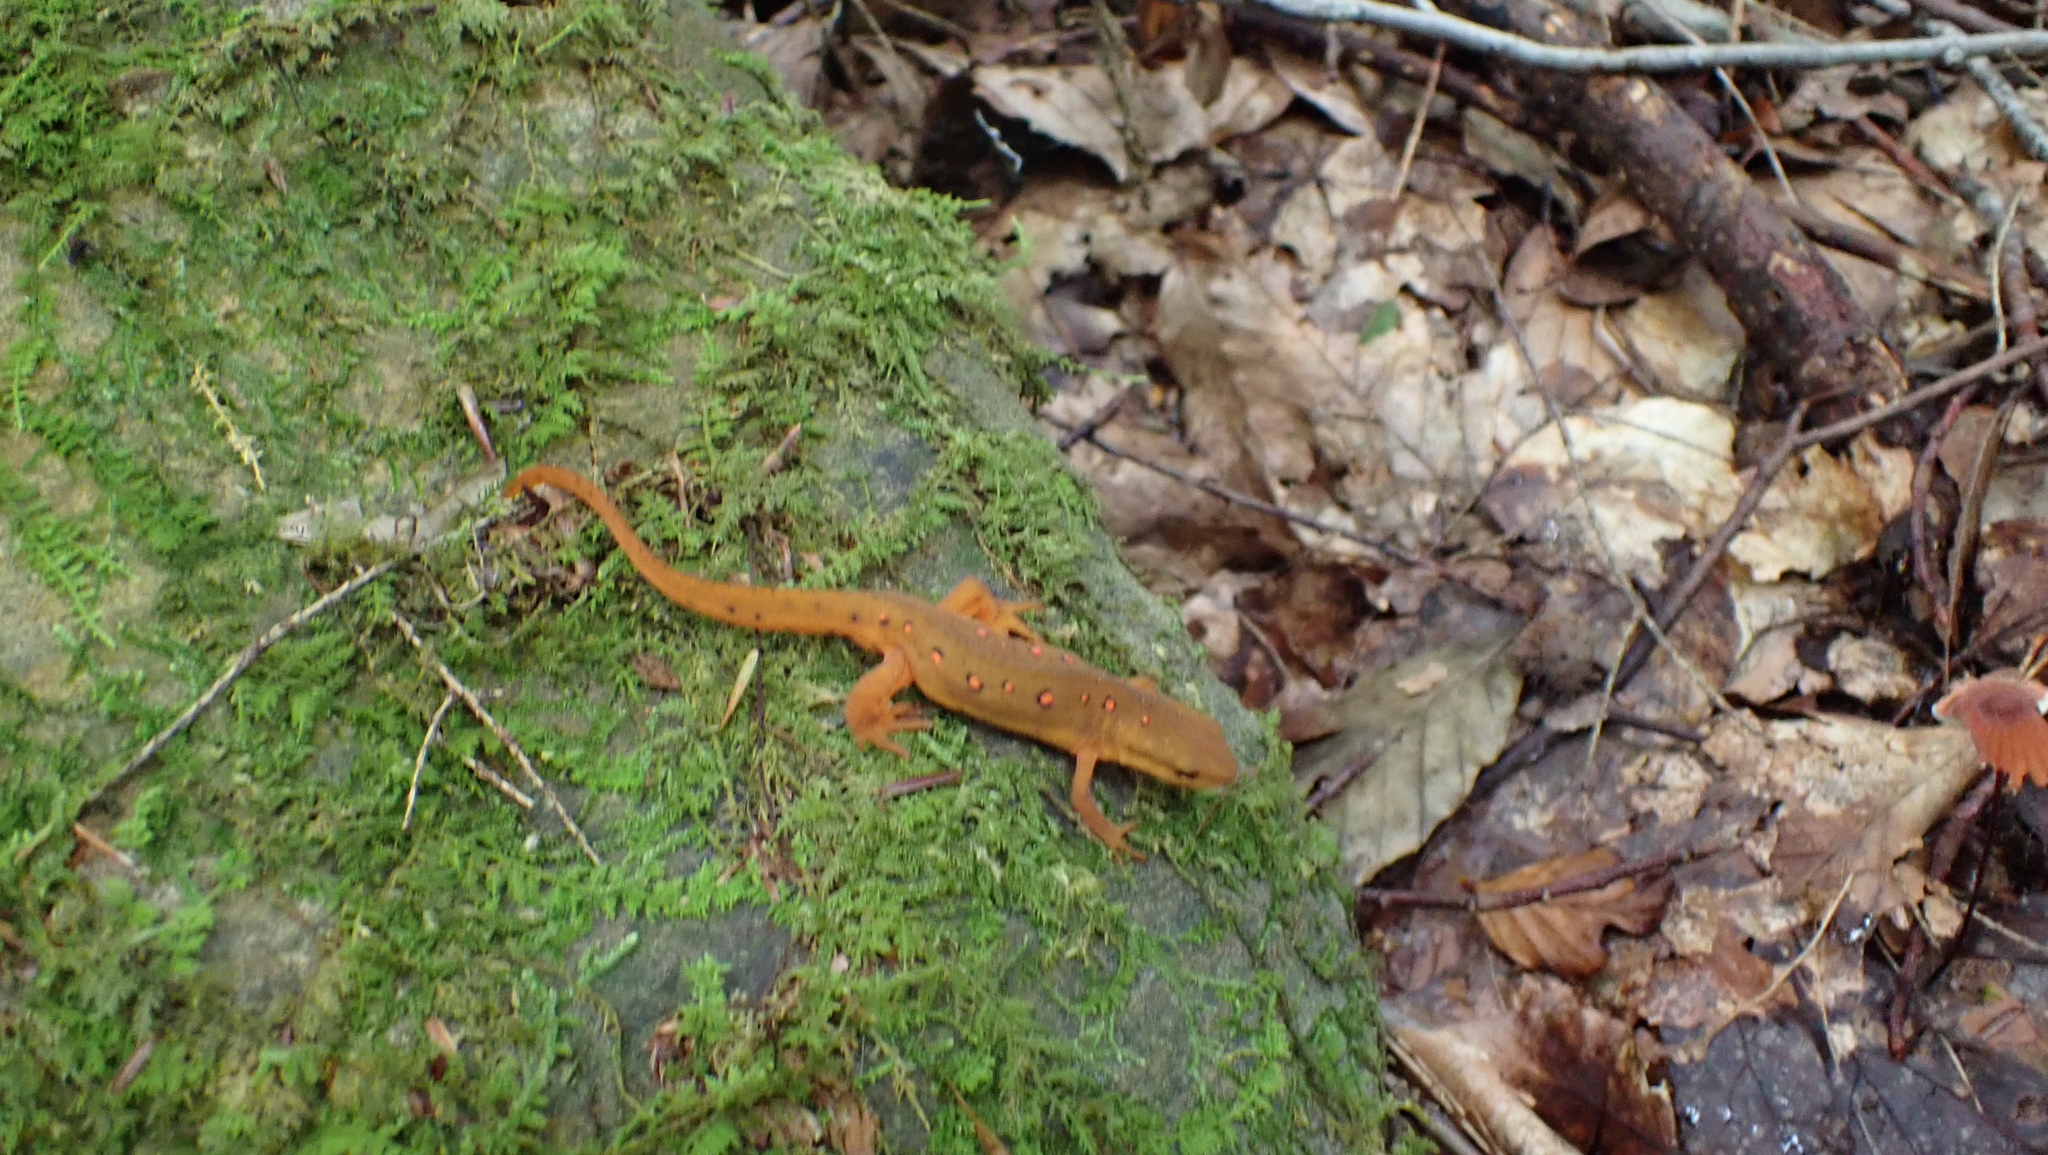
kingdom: Animalia
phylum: Chordata
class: Amphibia
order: Caudata
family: Salamandridae
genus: Notophthalmus
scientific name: Notophthalmus viridescens
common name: Eastern newt
